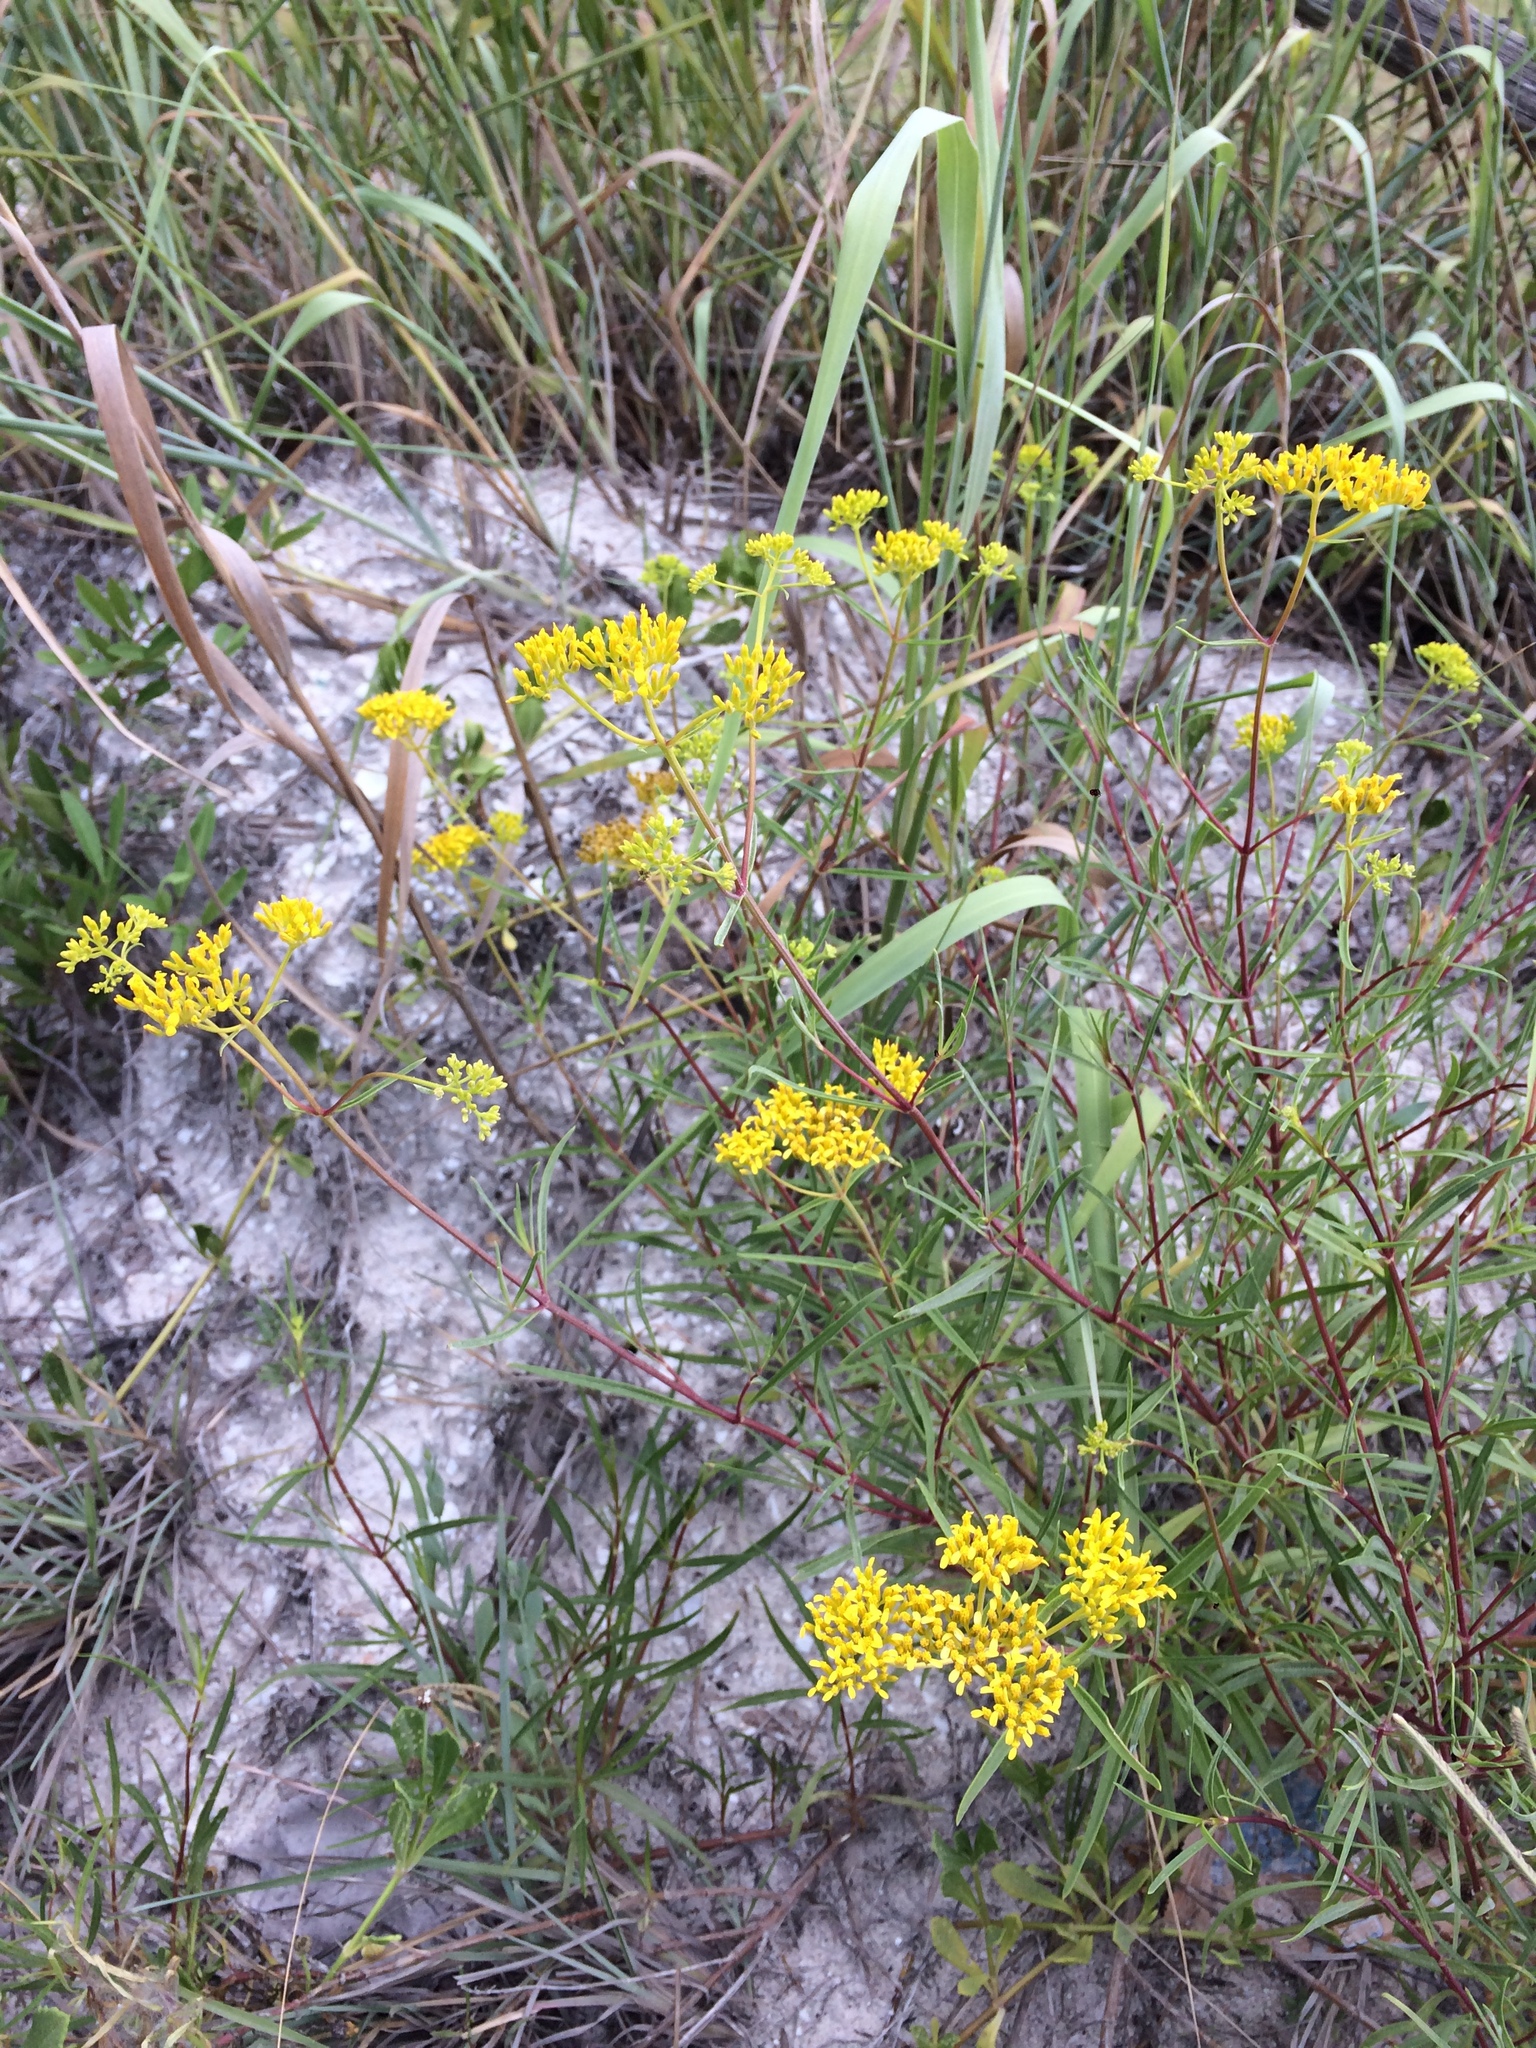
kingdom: Plantae
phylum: Tracheophyta
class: Magnoliopsida
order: Asterales
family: Asteraceae
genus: Flaveria
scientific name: Flaveria linearis
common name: Yellowtop
